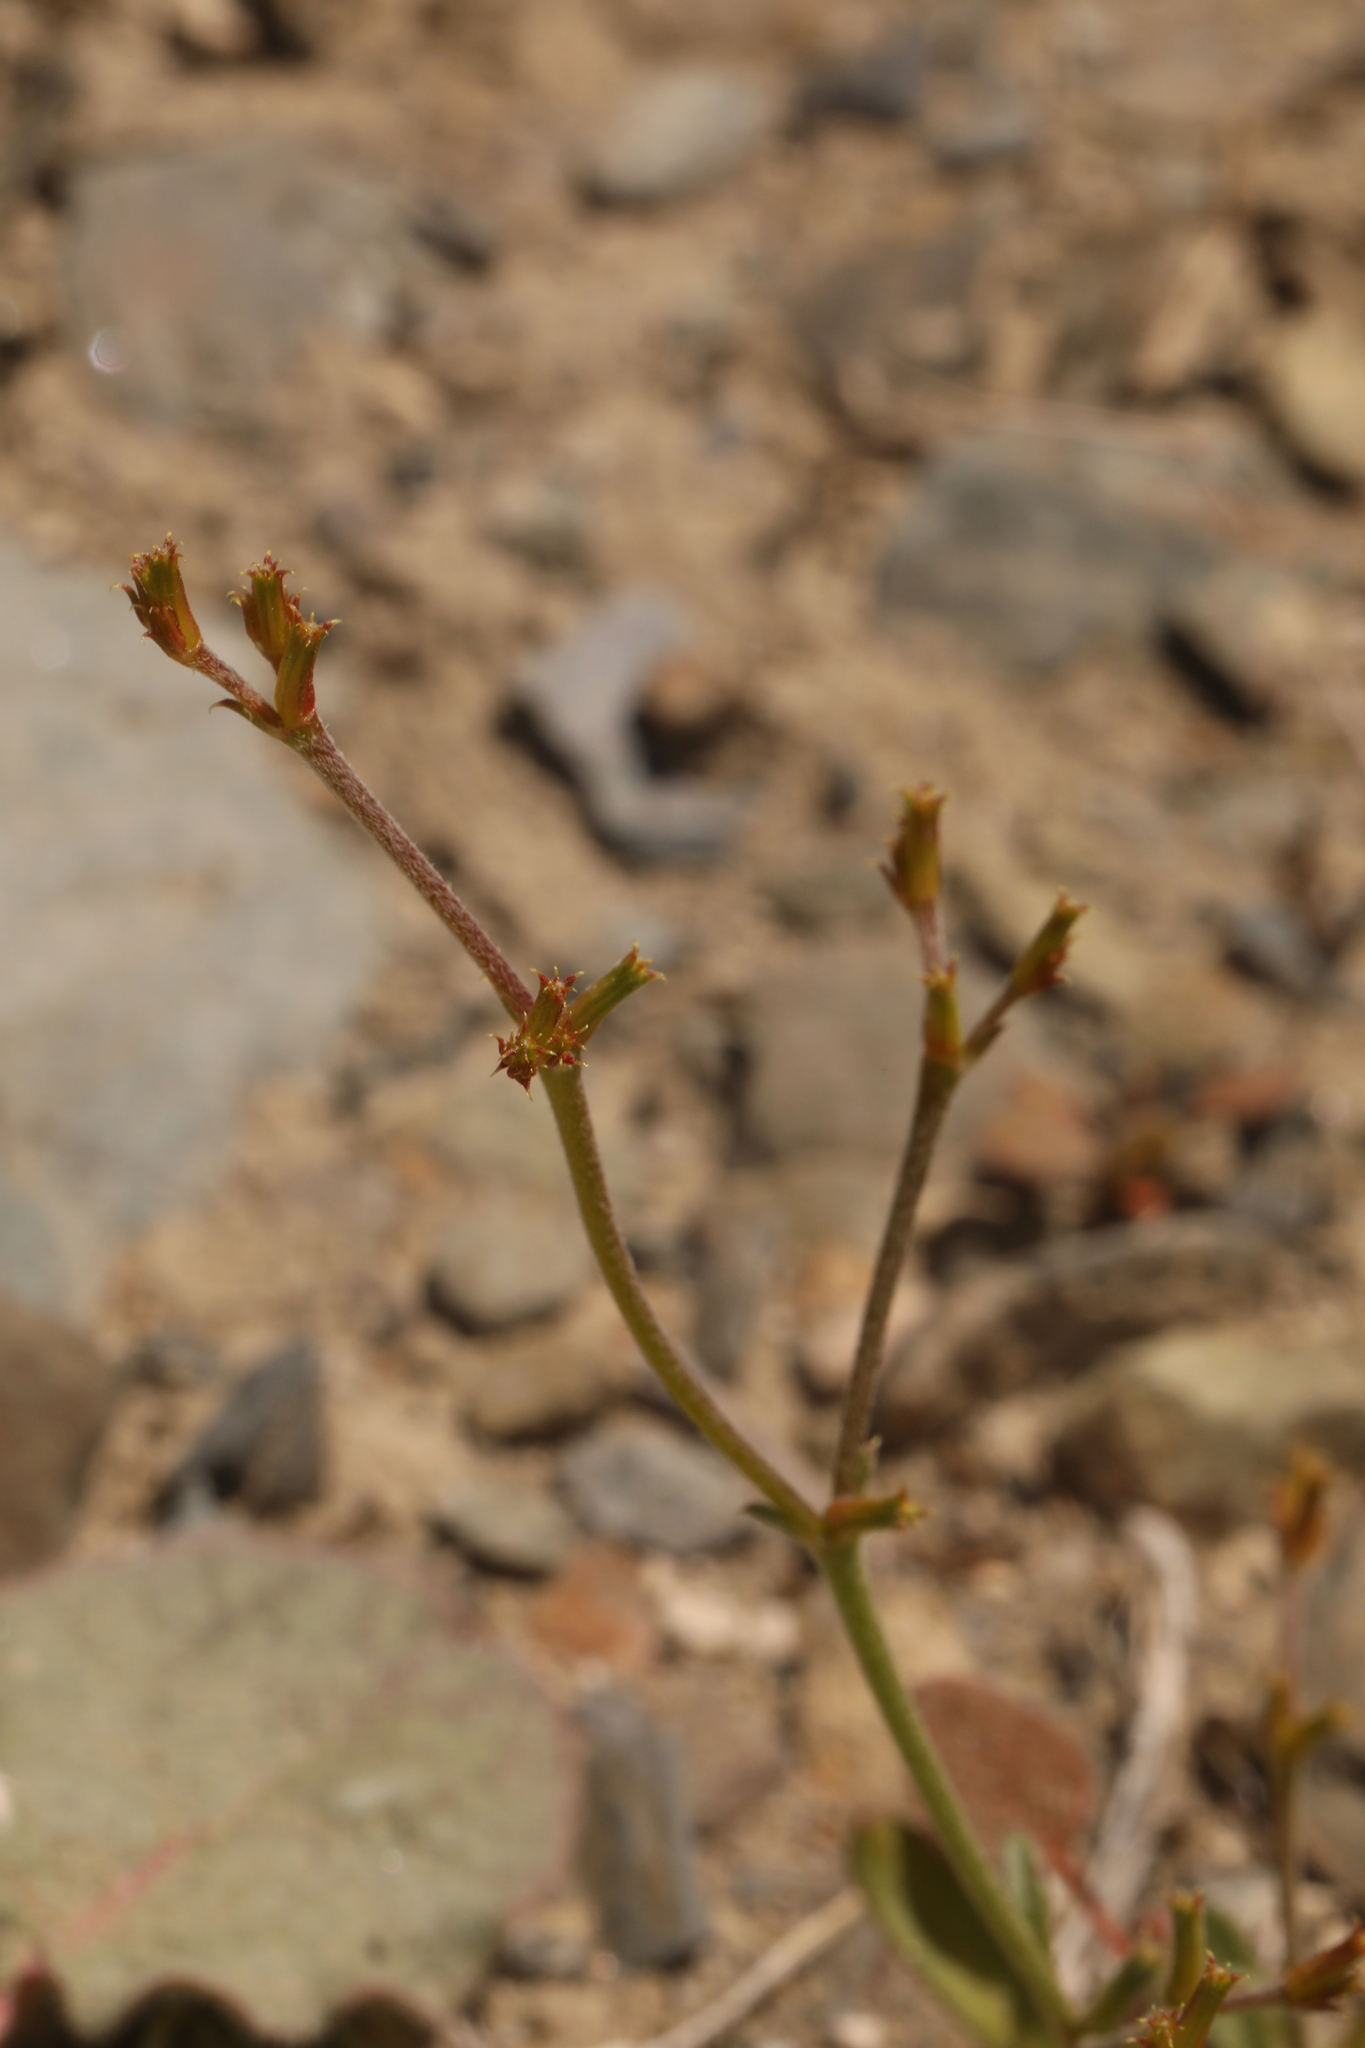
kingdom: Plantae
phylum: Tracheophyta
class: Magnoliopsida
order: Caryophyllales
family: Polygonaceae
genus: Chorizanthe
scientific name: Chorizanthe brevicornu
